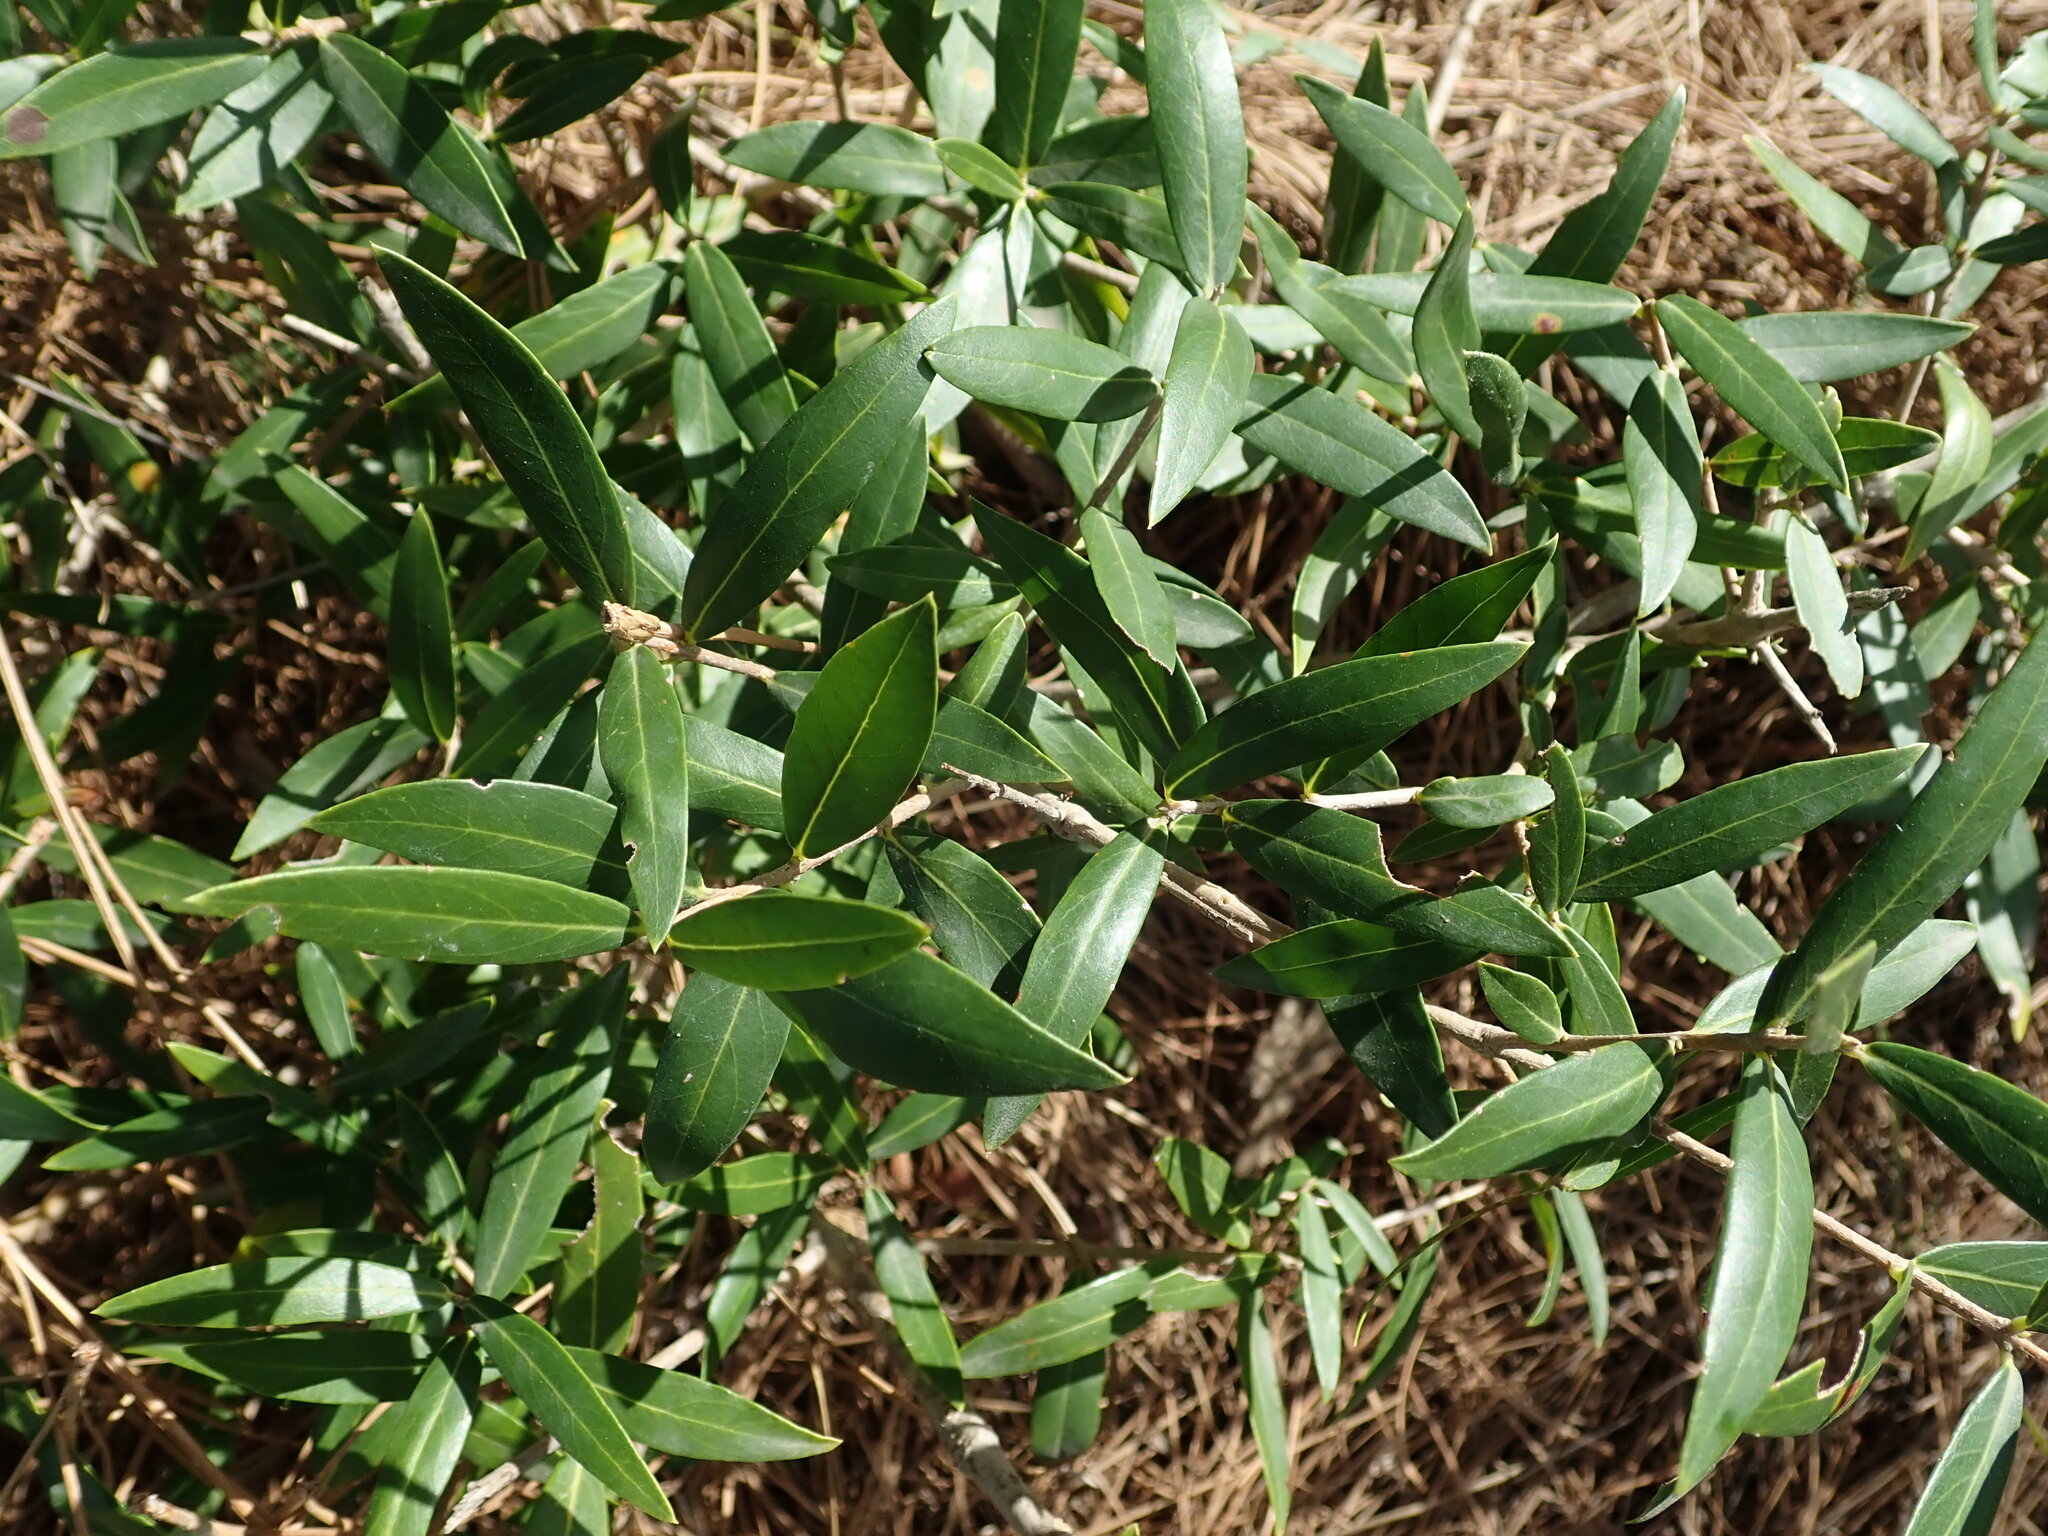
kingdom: Plantae
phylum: Tracheophyta
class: Magnoliopsida
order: Lamiales
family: Oleaceae
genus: Olea
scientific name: Olea europaea
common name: Olive
